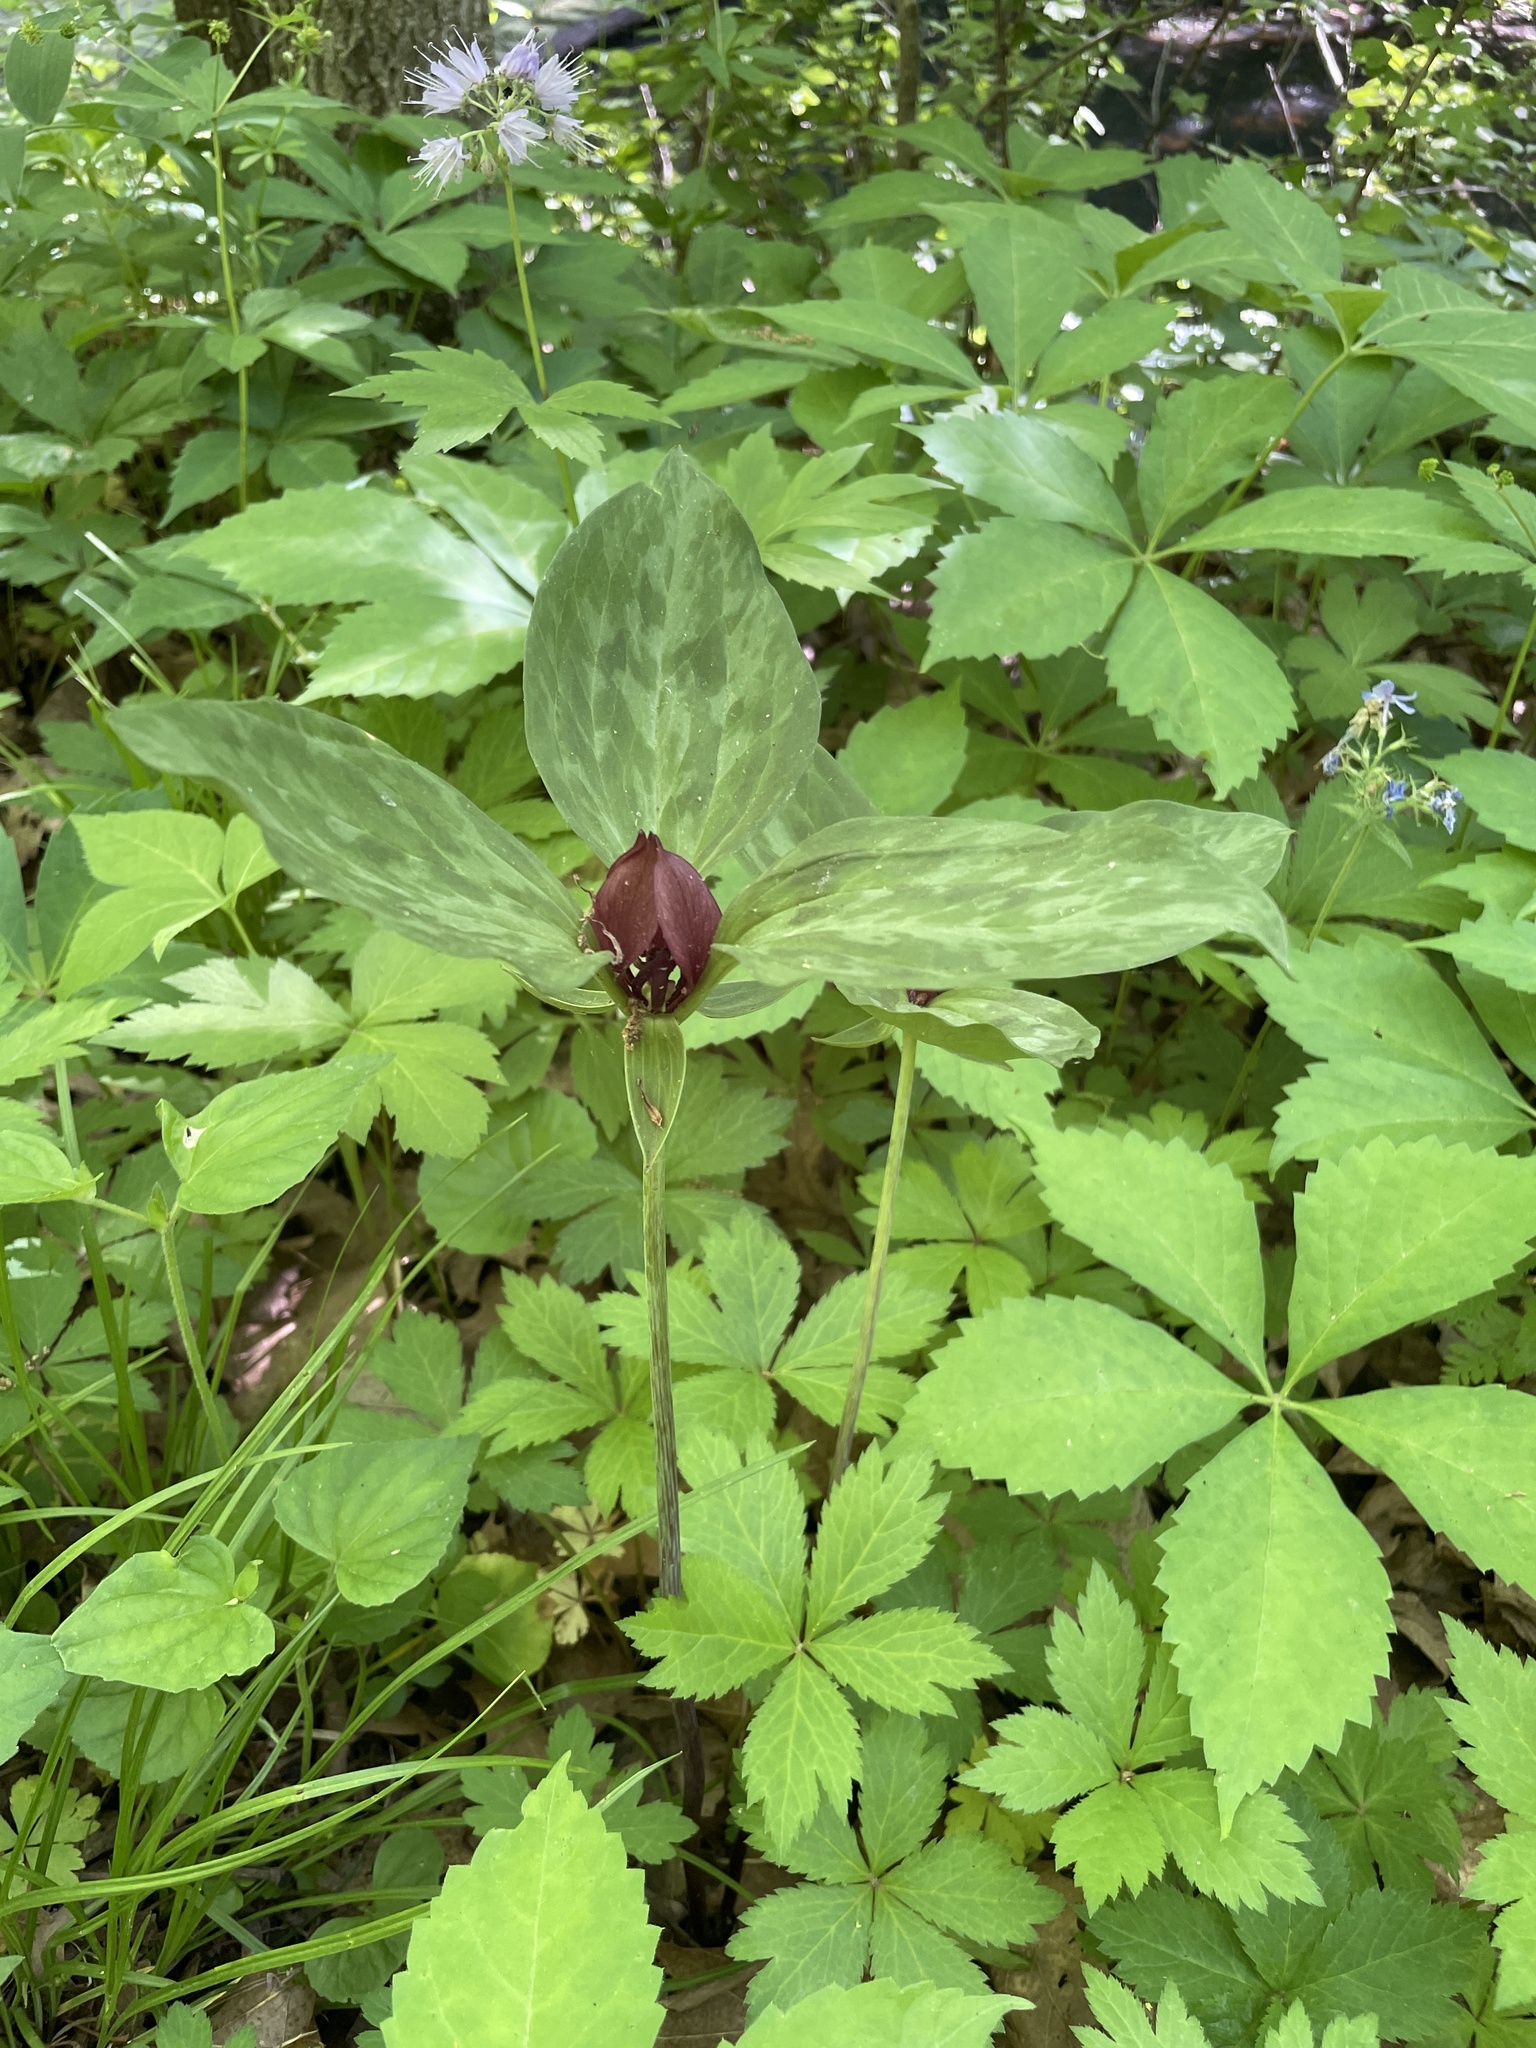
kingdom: Plantae
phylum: Tracheophyta
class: Liliopsida
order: Liliales
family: Melanthiaceae
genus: Trillium
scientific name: Trillium recurvatum
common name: Bloody butcher
